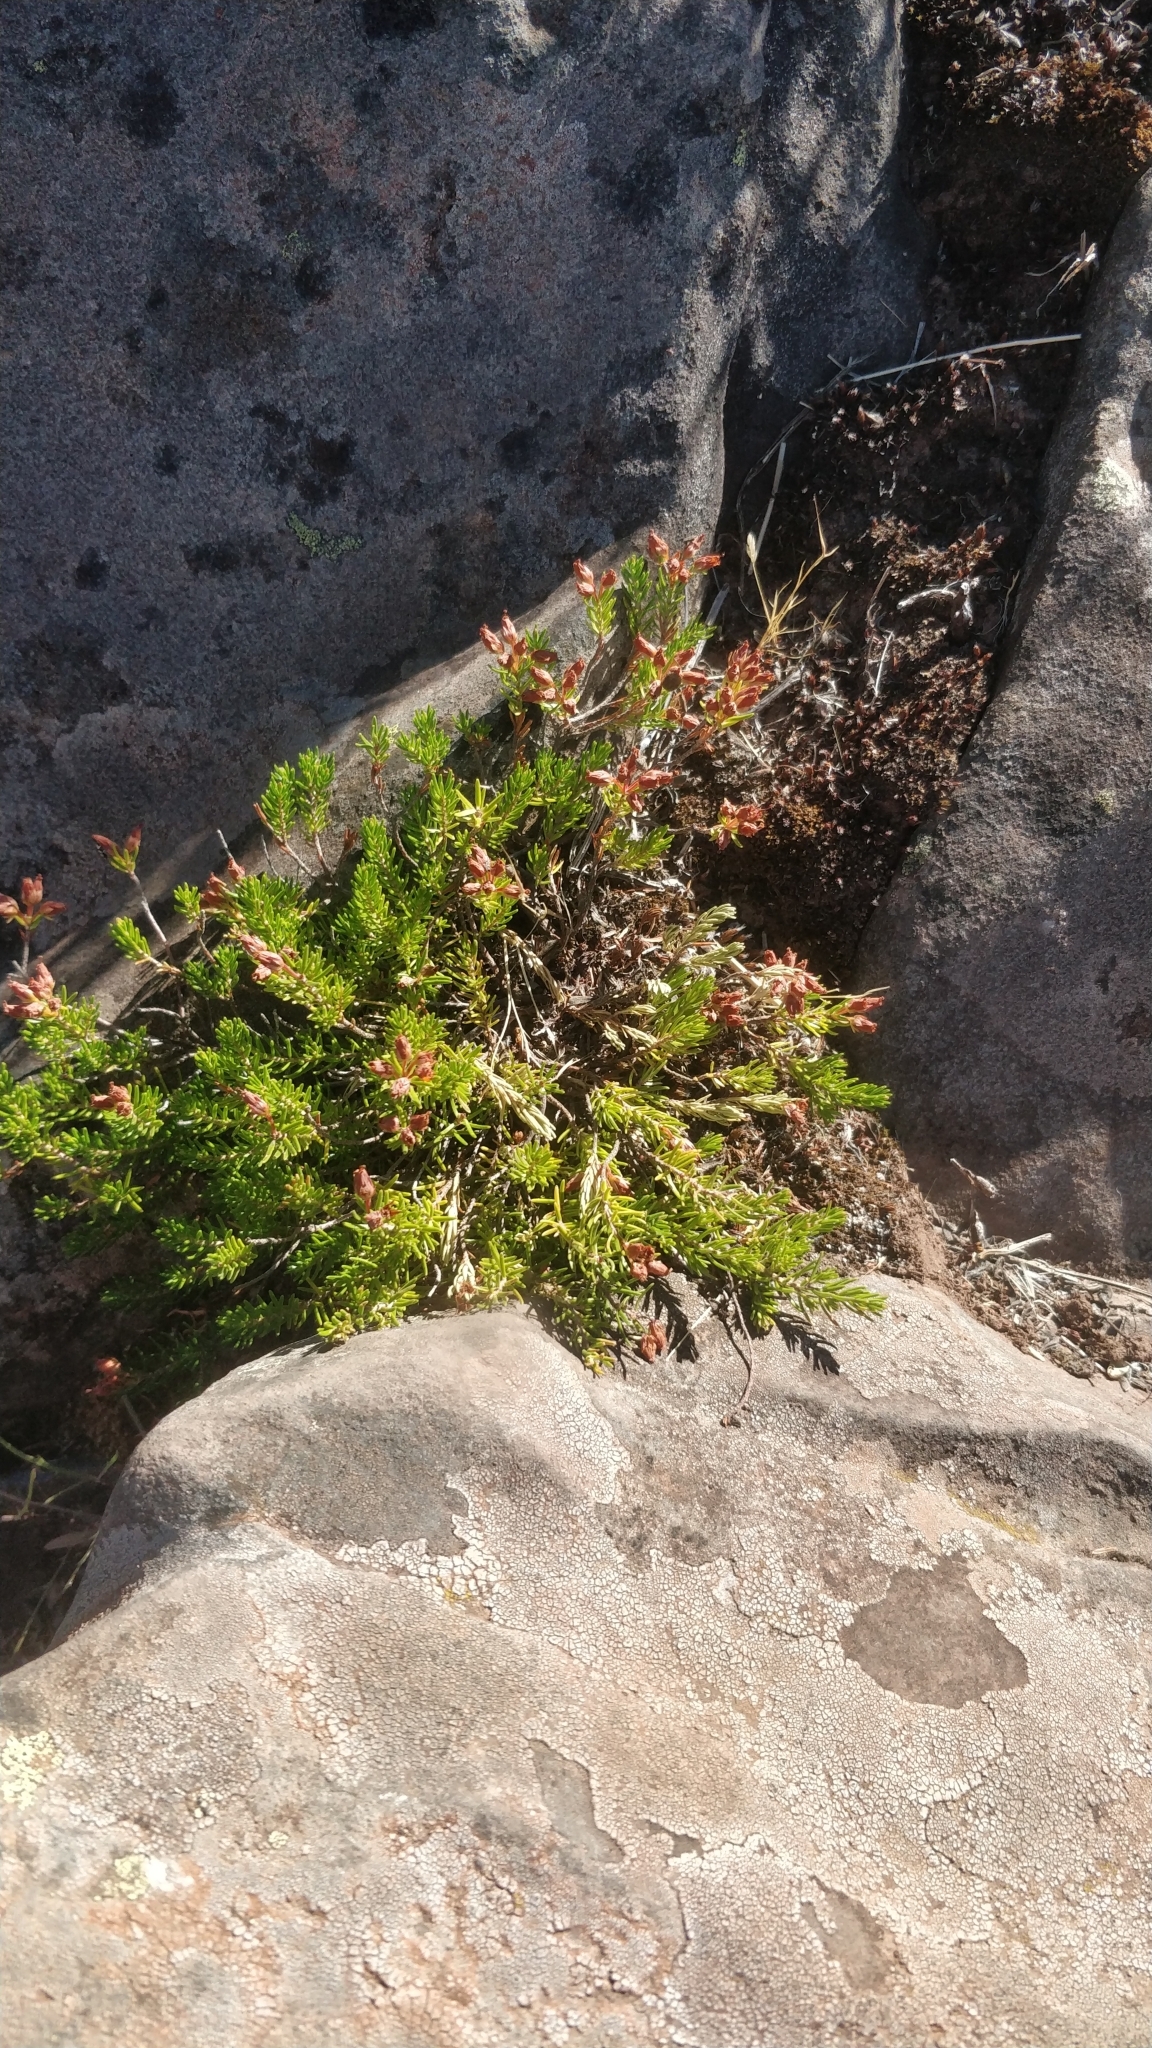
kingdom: Plantae
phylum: Tracheophyta
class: Magnoliopsida
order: Ericales
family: Ericaceae
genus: Erica
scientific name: Erica maderensis
